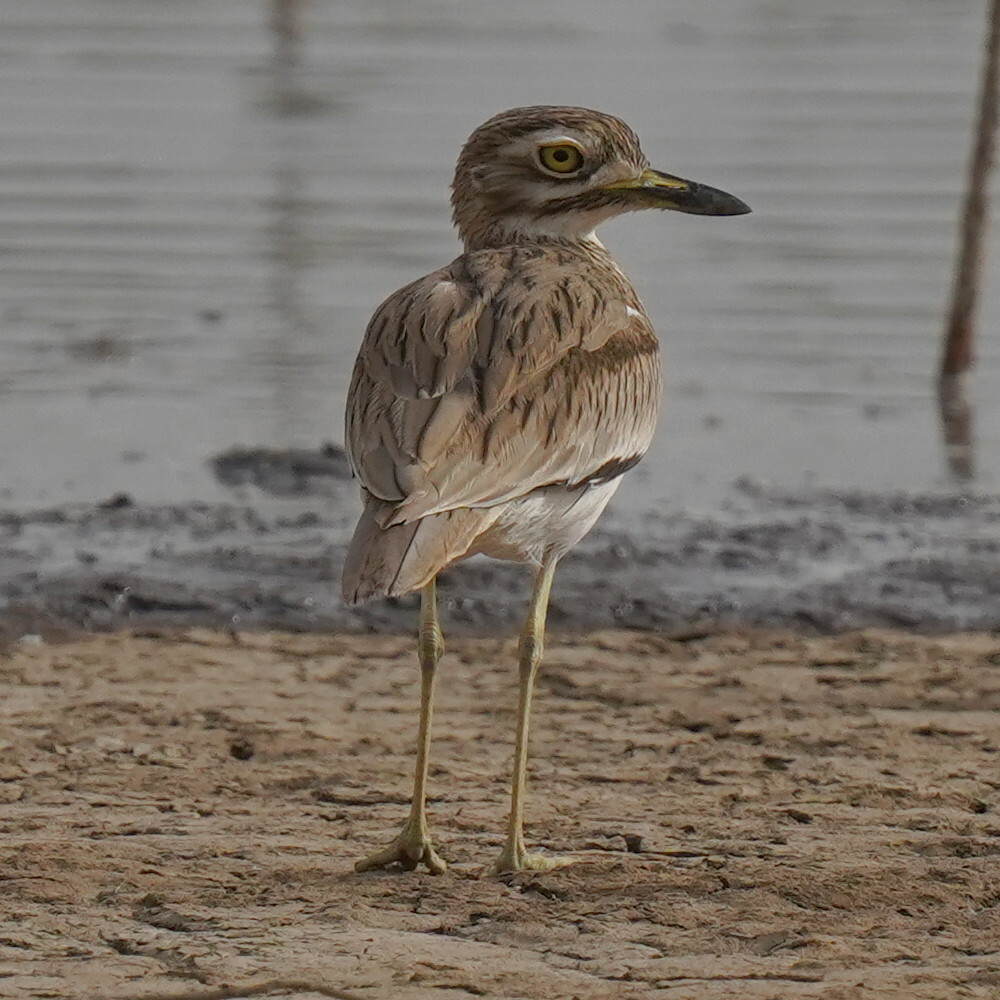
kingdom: Animalia
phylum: Chordata
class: Aves
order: Charadriiformes
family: Burhinidae
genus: Burhinus
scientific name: Burhinus senegalensis
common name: Senegal thick-knee
